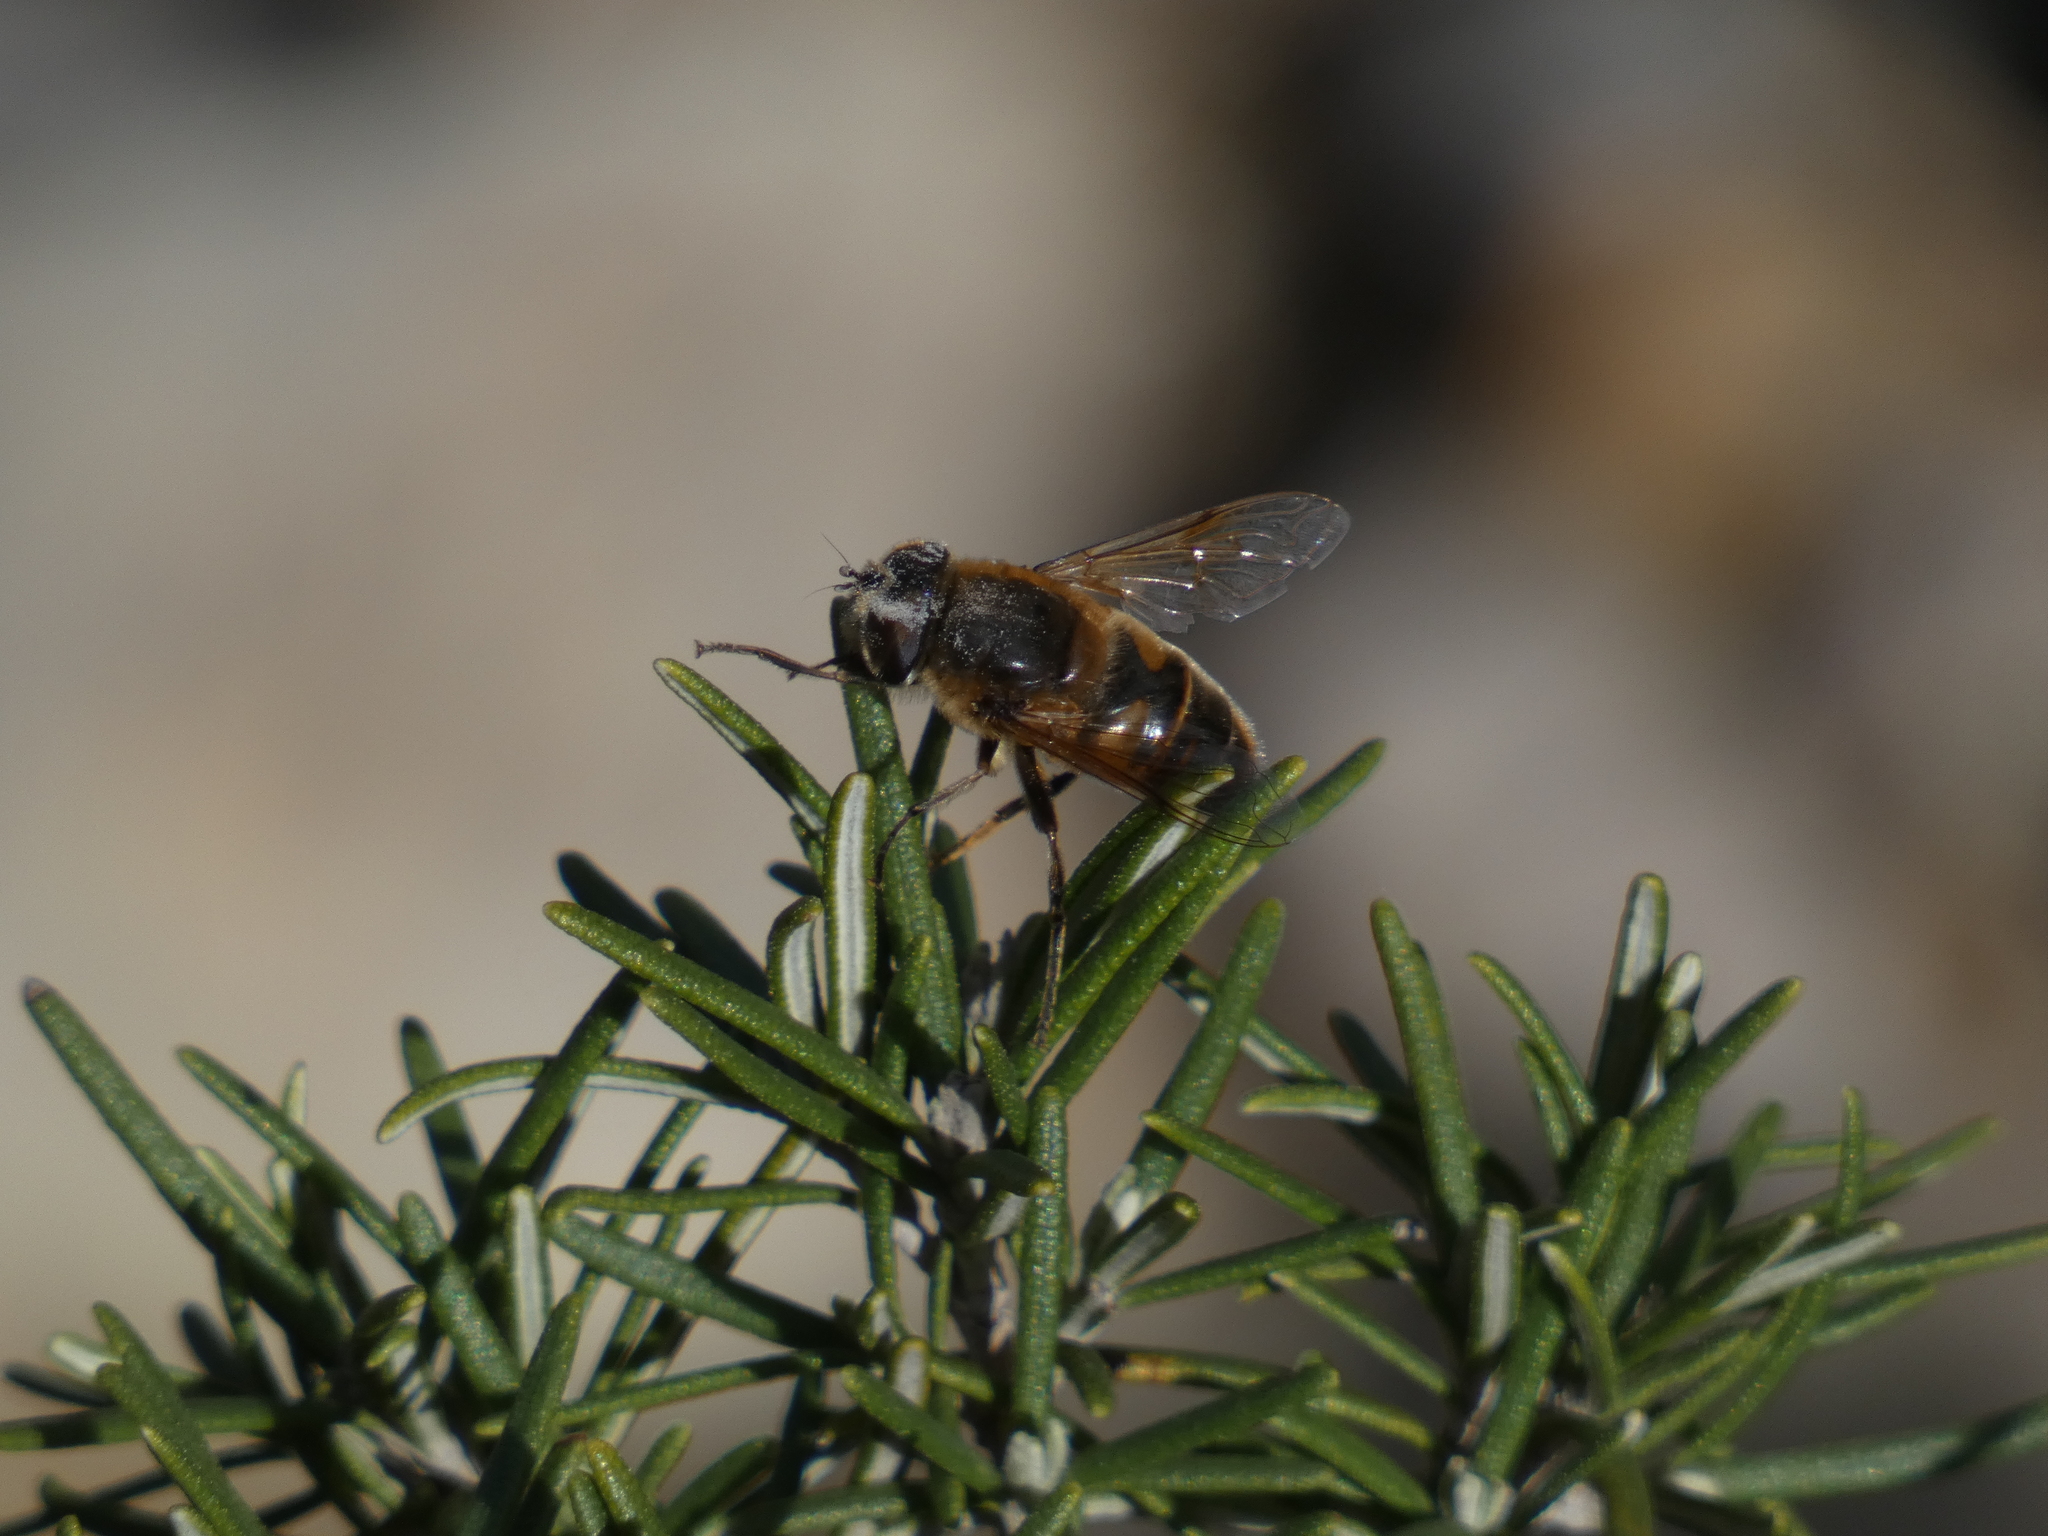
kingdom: Animalia
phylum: Arthropoda
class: Insecta
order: Diptera
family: Syrphidae
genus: Eristalis
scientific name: Eristalis tenax
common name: Drone fly
